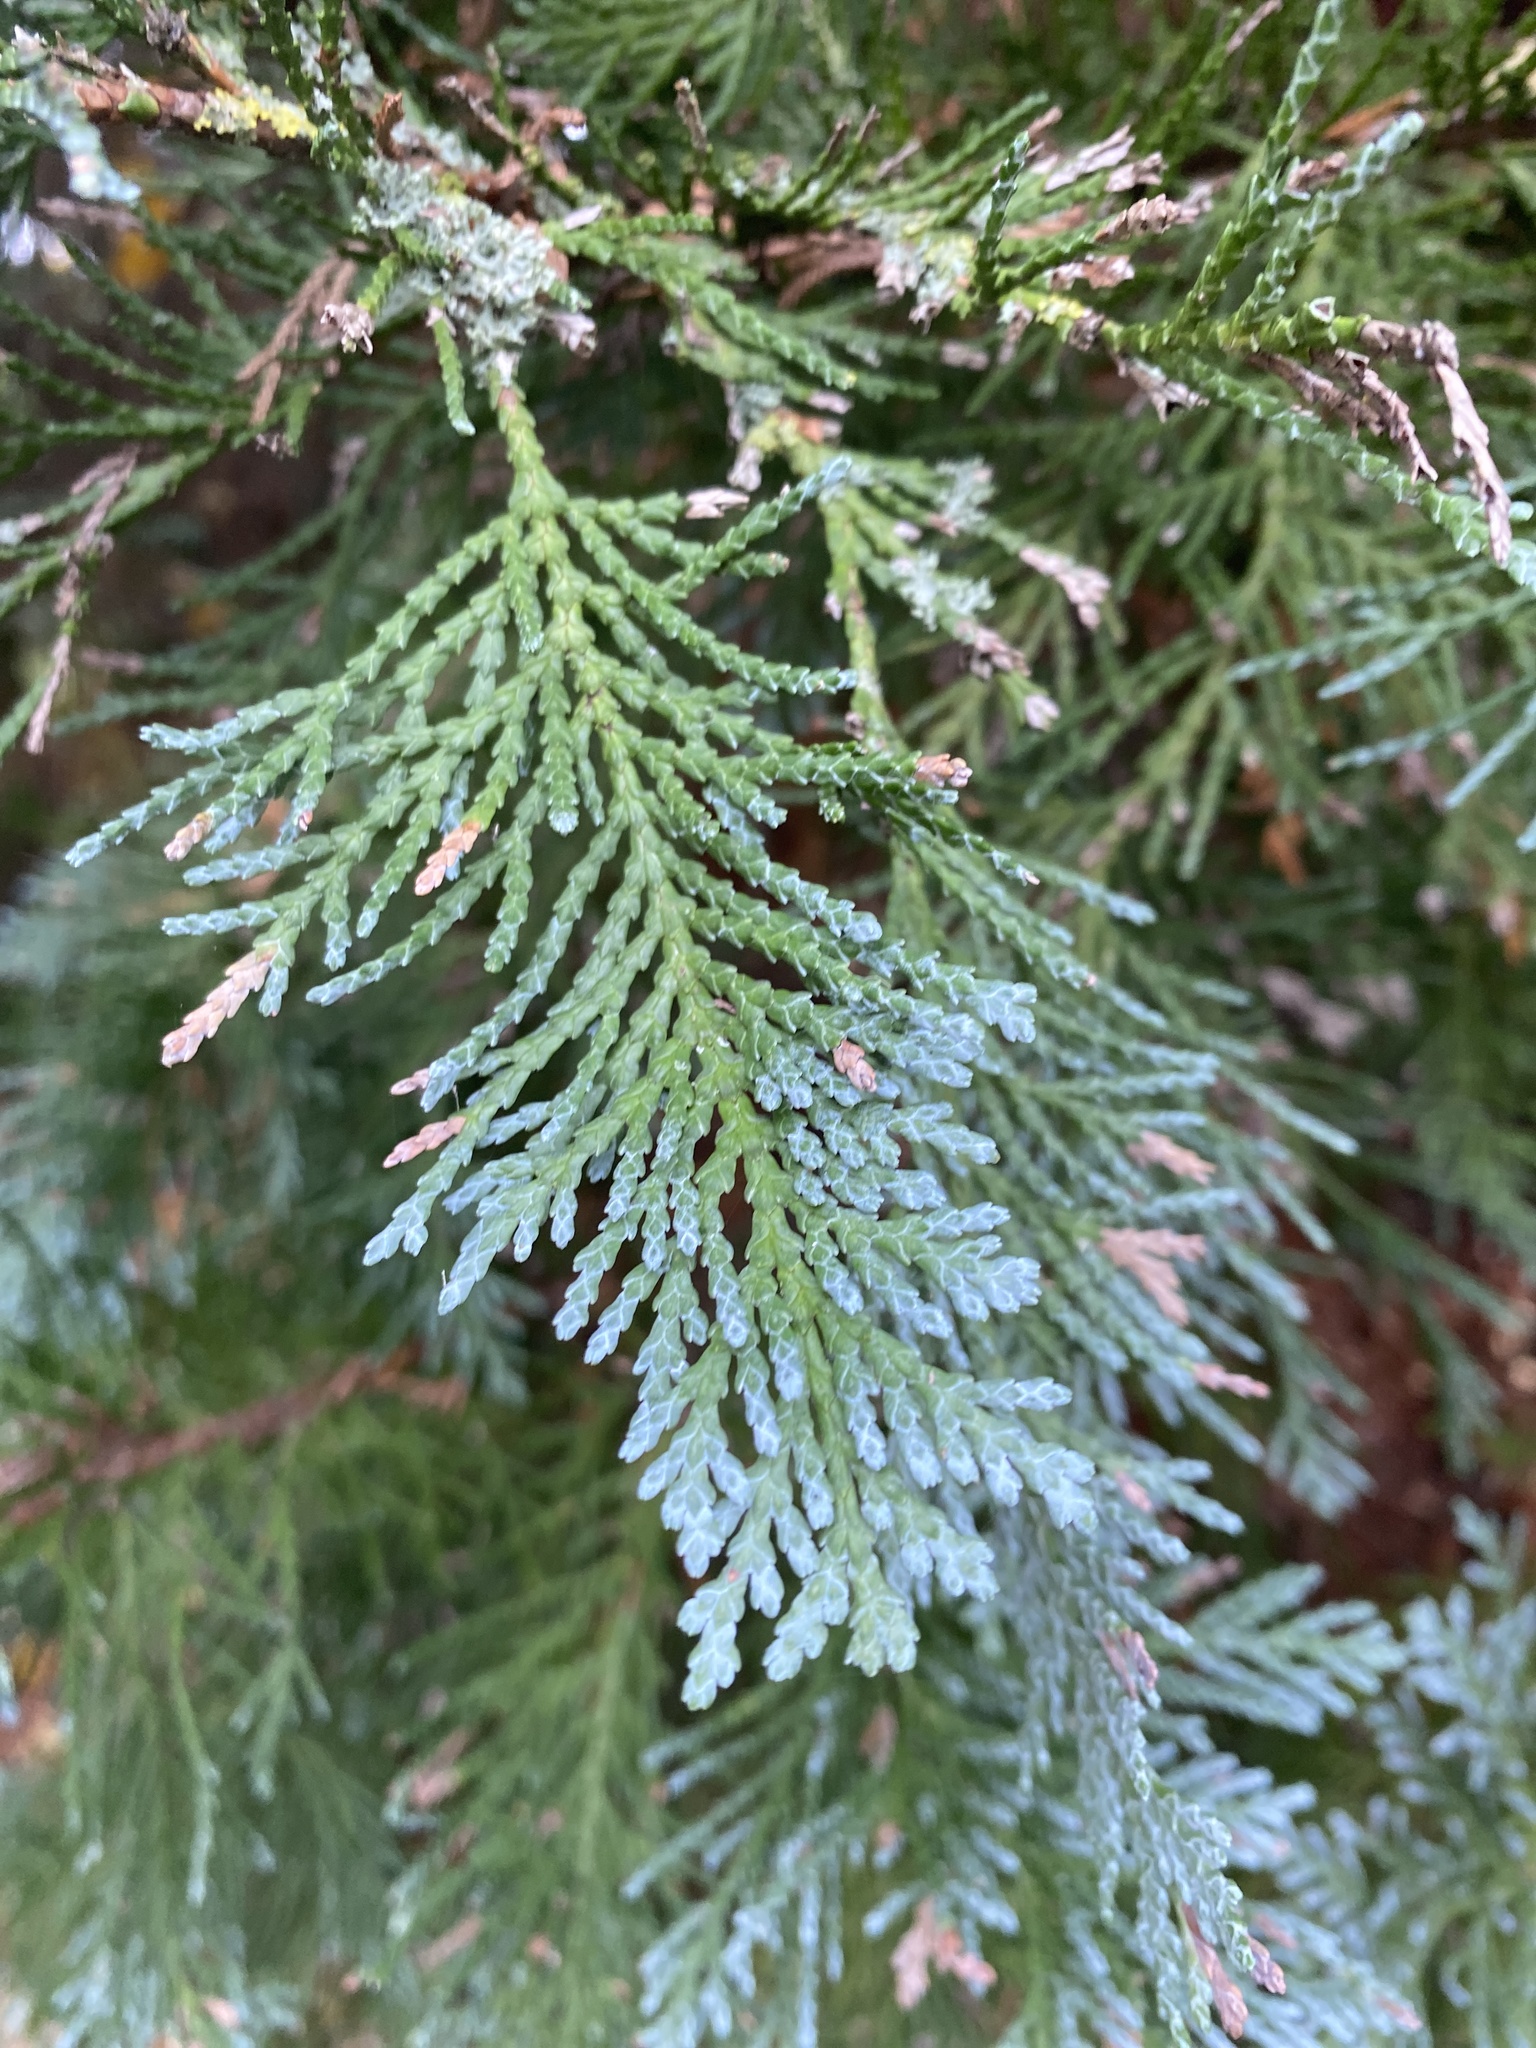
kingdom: Plantae
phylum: Tracheophyta
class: Pinopsida
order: Pinales
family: Cupressaceae
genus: Chamaecyparis
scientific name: Chamaecyparis lawsoniana
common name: Lawson's cypress
